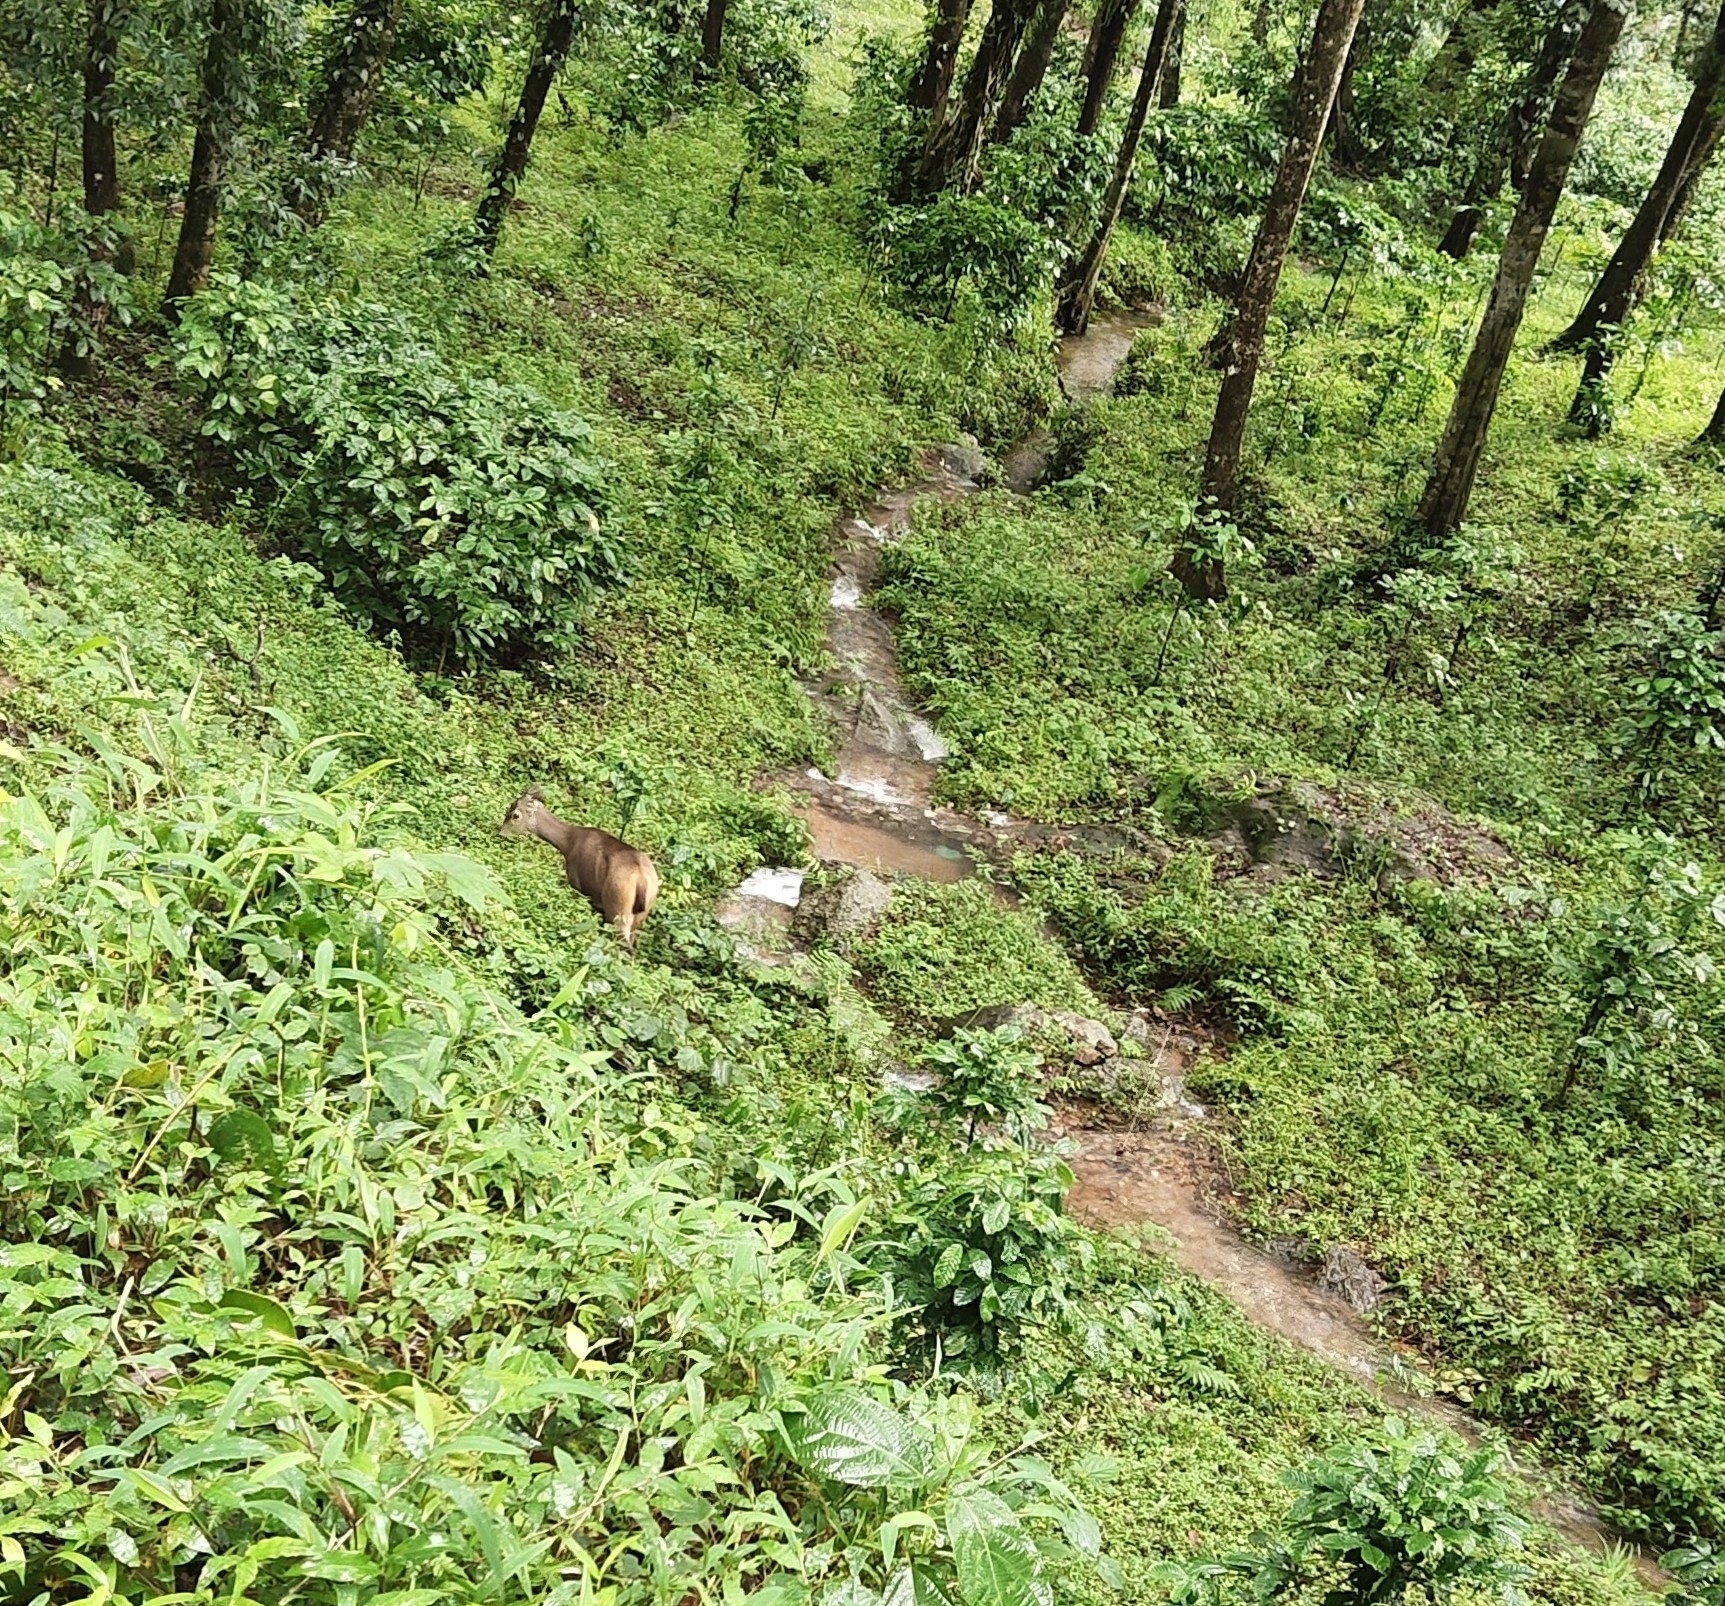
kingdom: Animalia
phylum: Chordata
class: Mammalia
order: Artiodactyla
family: Cervidae
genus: Rusa
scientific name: Rusa unicolor
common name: Sambar
